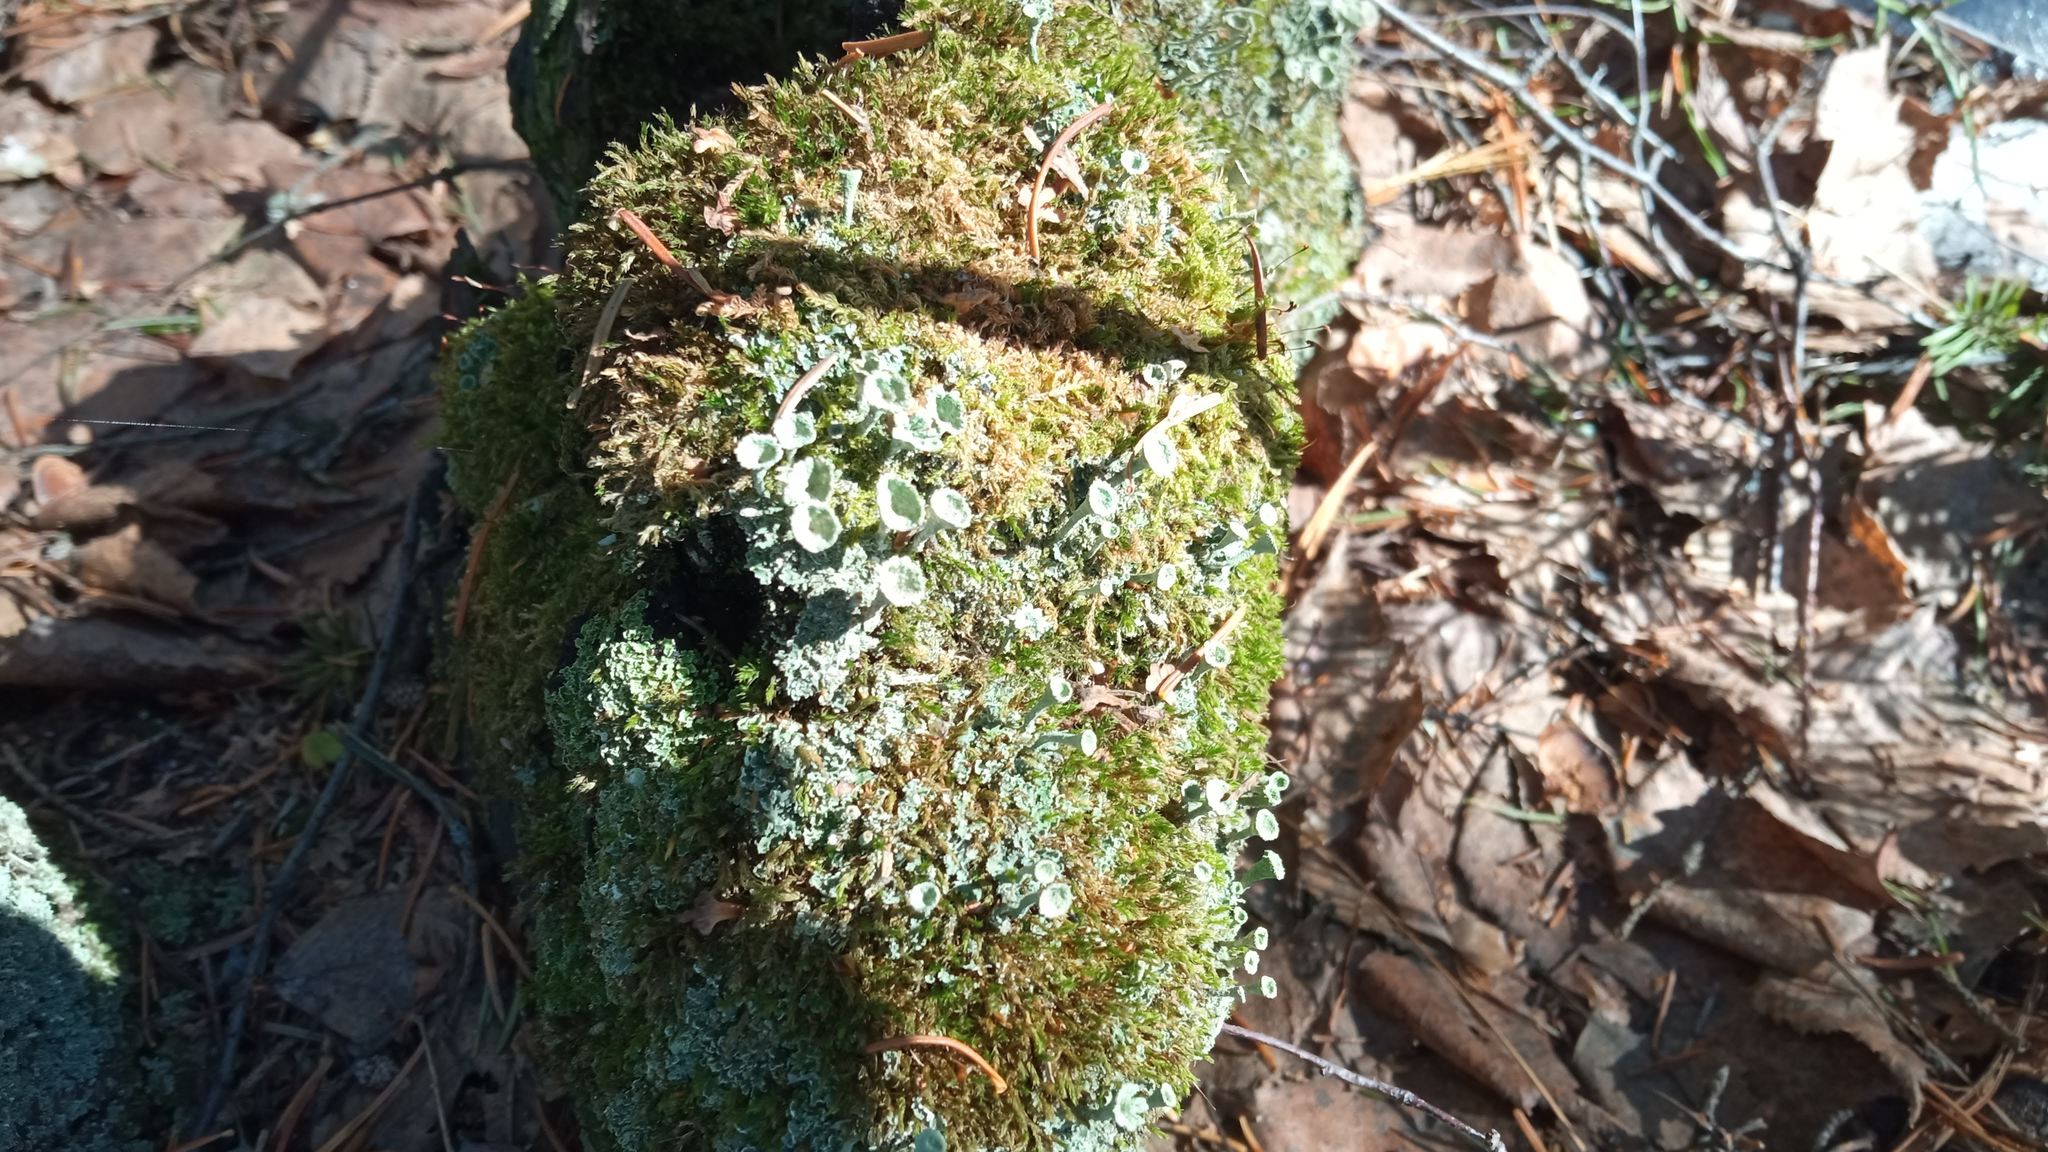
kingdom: Fungi
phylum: Ascomycota
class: Lecanoromycetes
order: Lecanorales
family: Cladoniaceae
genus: Cladonia
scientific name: Cladonia fimbriata
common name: Powdered trumpet lichen
